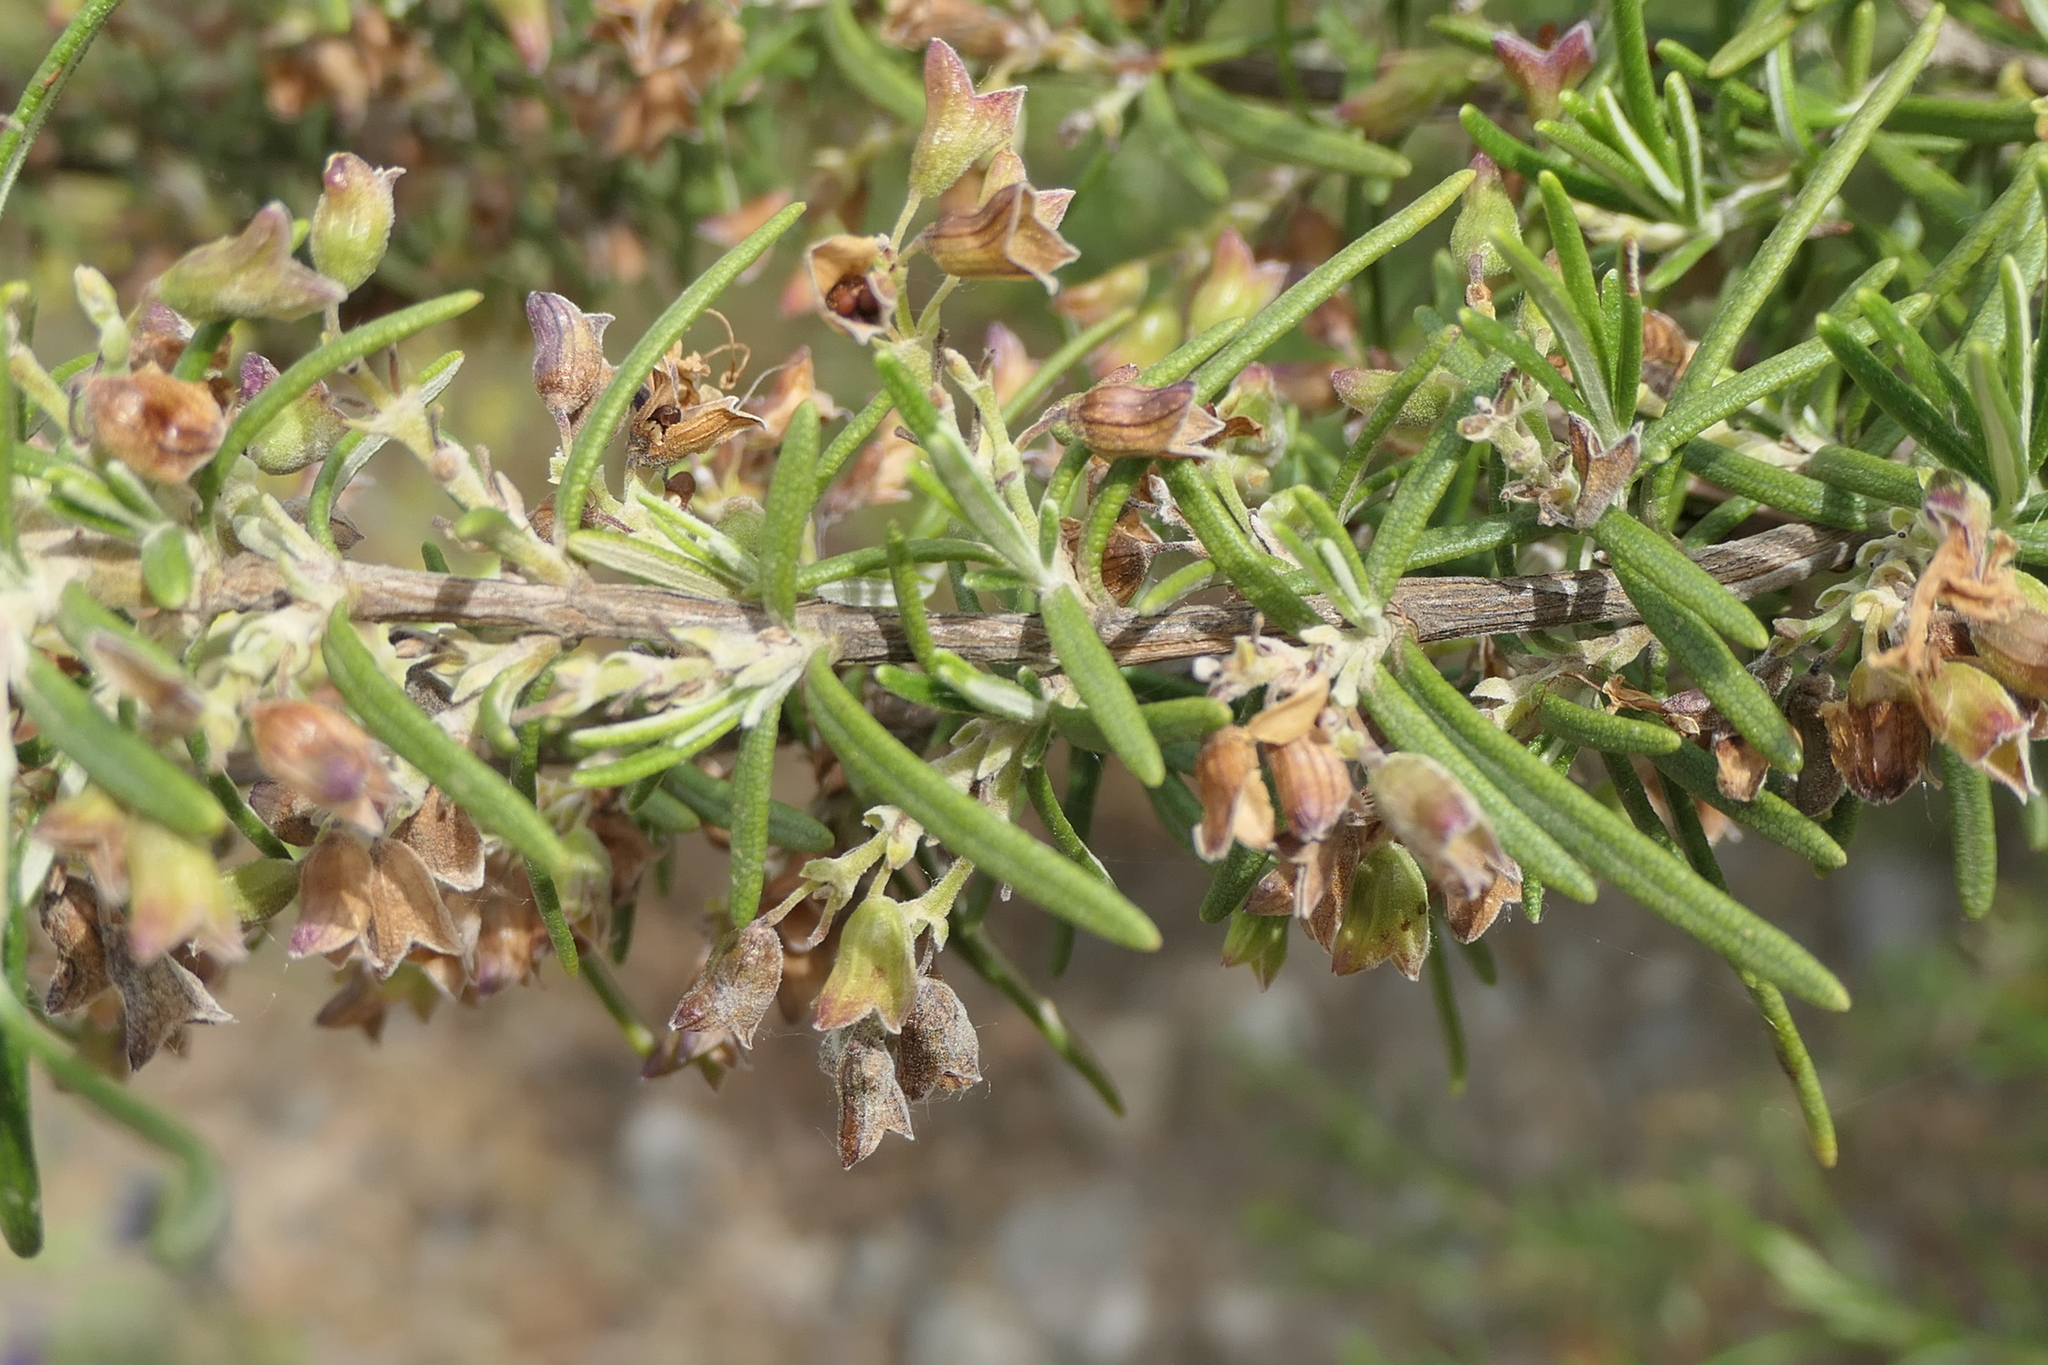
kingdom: Plantae
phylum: Tracheophyta
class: Magnoliopsida
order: Lamiales
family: Lamiaceae
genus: Salvia
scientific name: Salvia rosmarinus
